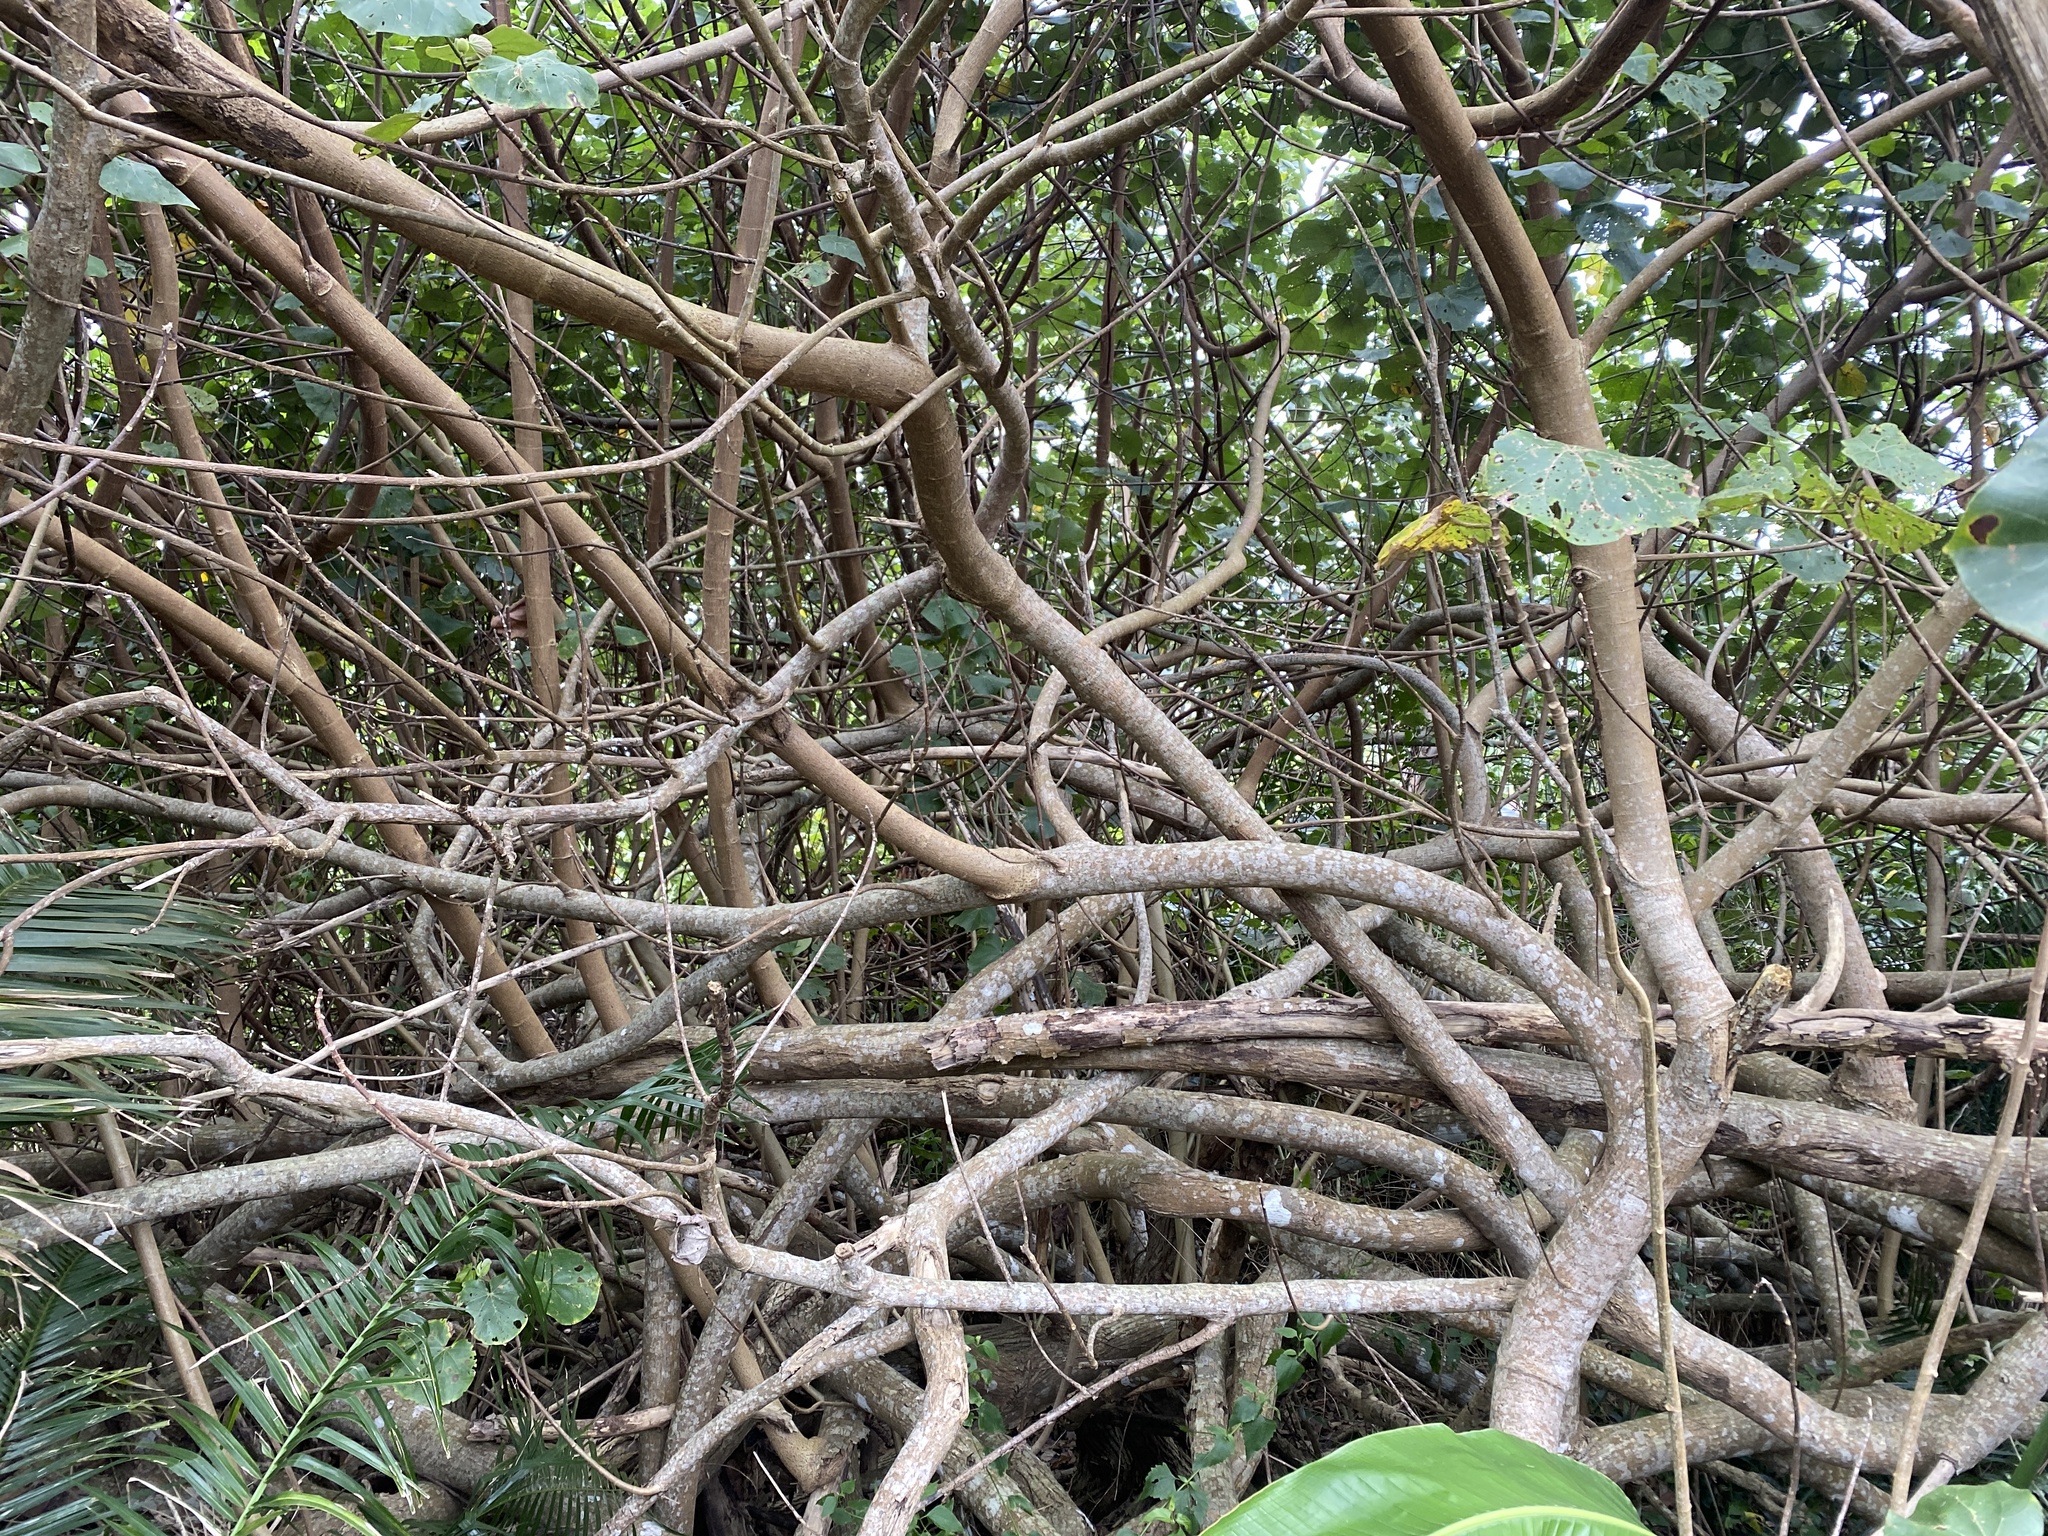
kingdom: Plantae
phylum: Tracheophyta
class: Magnoliopsida
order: Malvales
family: Malvaceae
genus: Talipariti
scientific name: Talipariti tiliaceum
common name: Sea hibiscus
